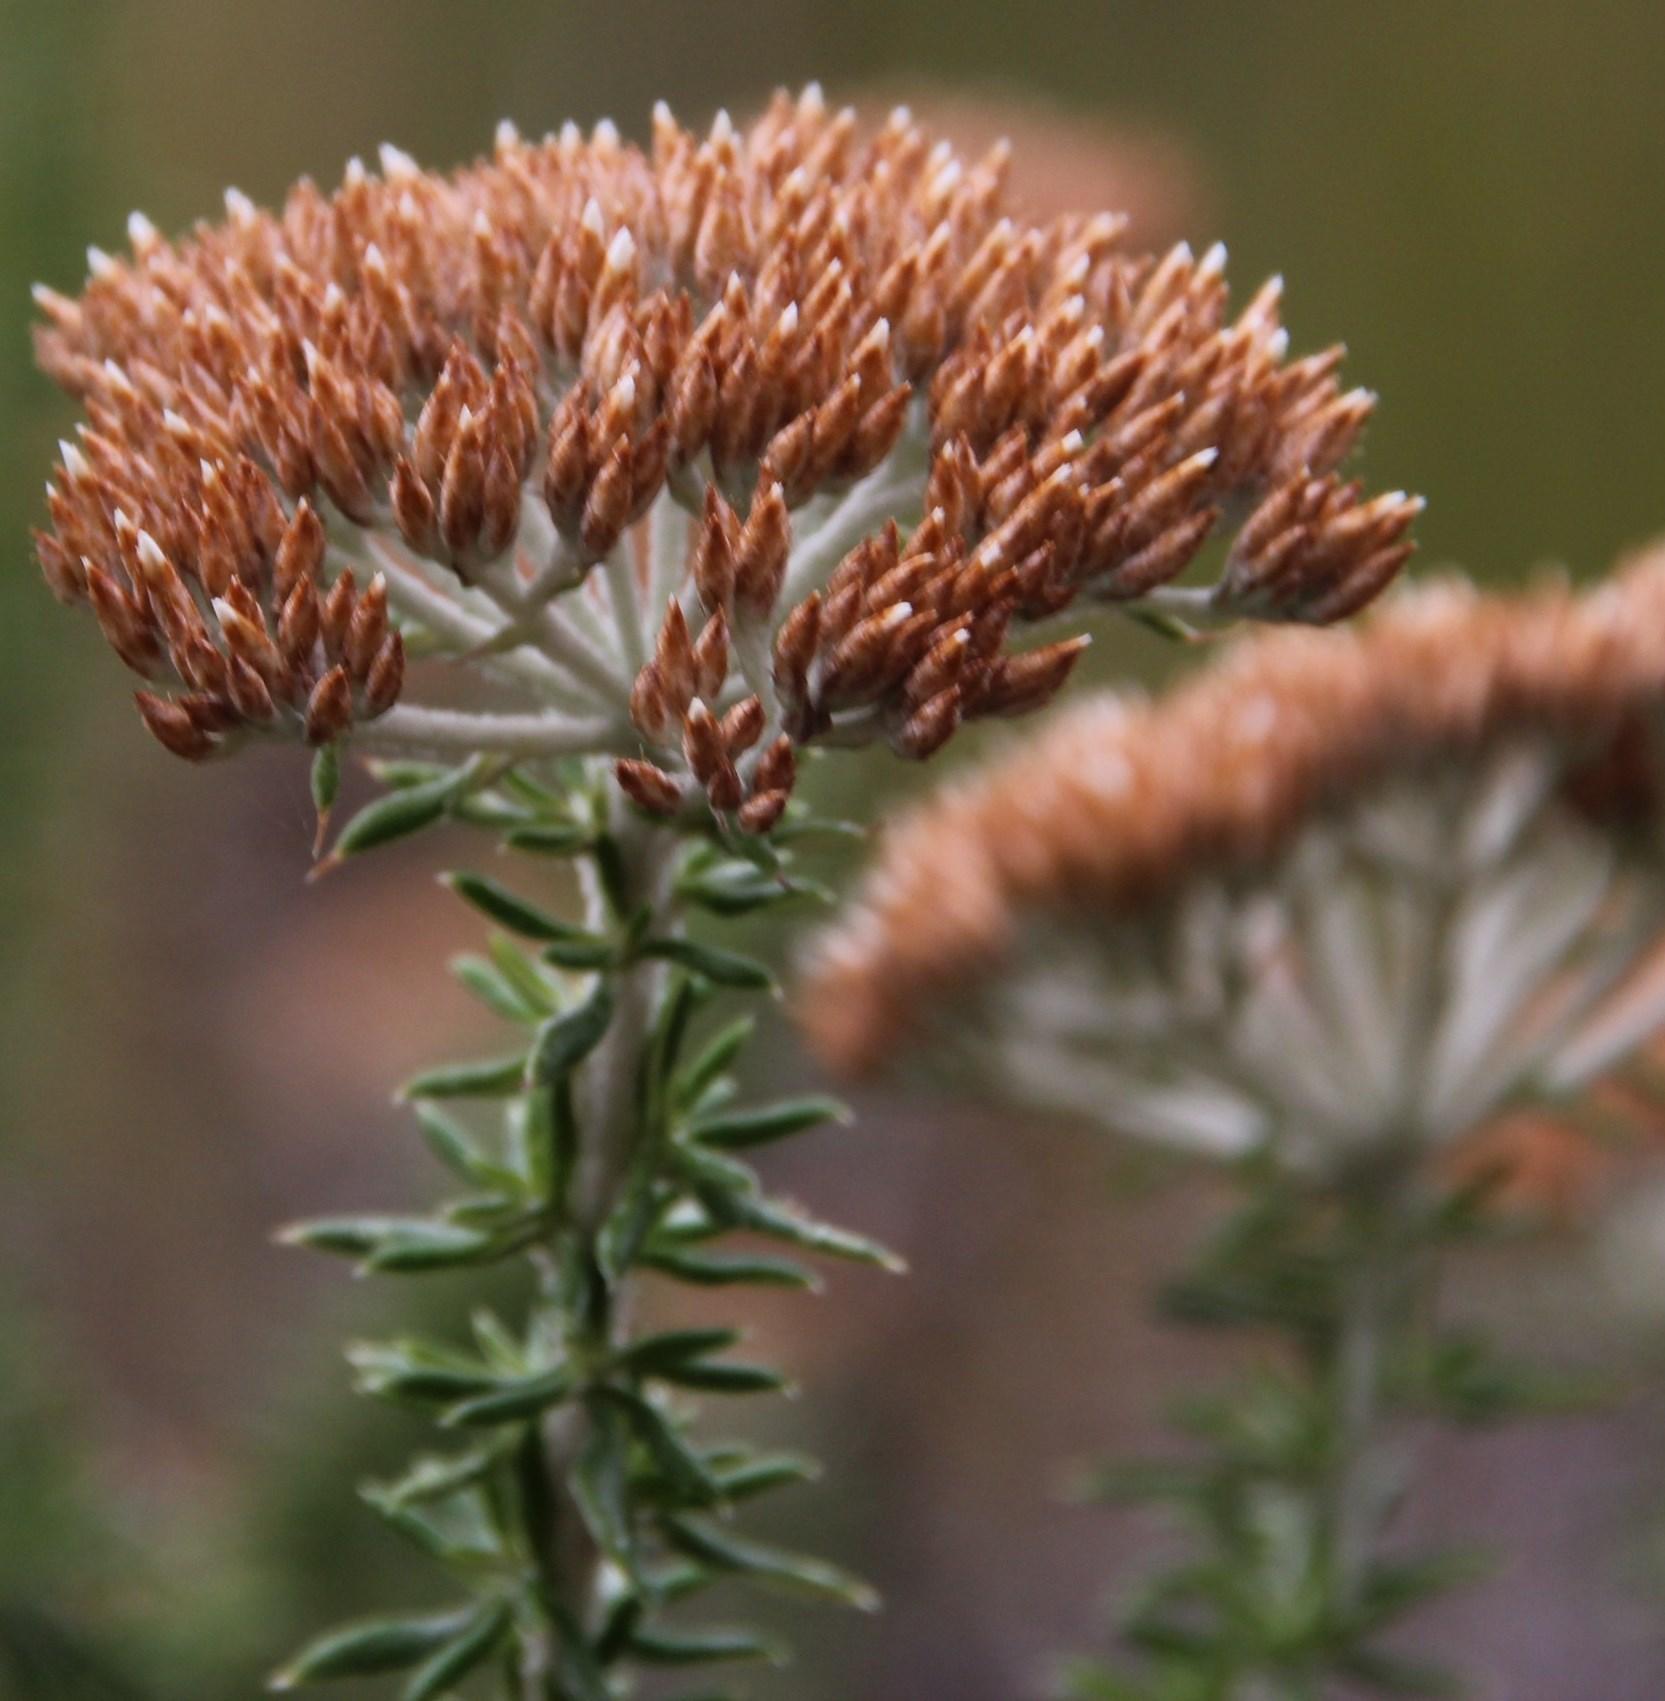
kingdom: Plantae
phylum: Tracheophyta
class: Magnoliopsida
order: Asterales
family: Asteraceae
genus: Metalasia
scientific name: Metalasia densa
